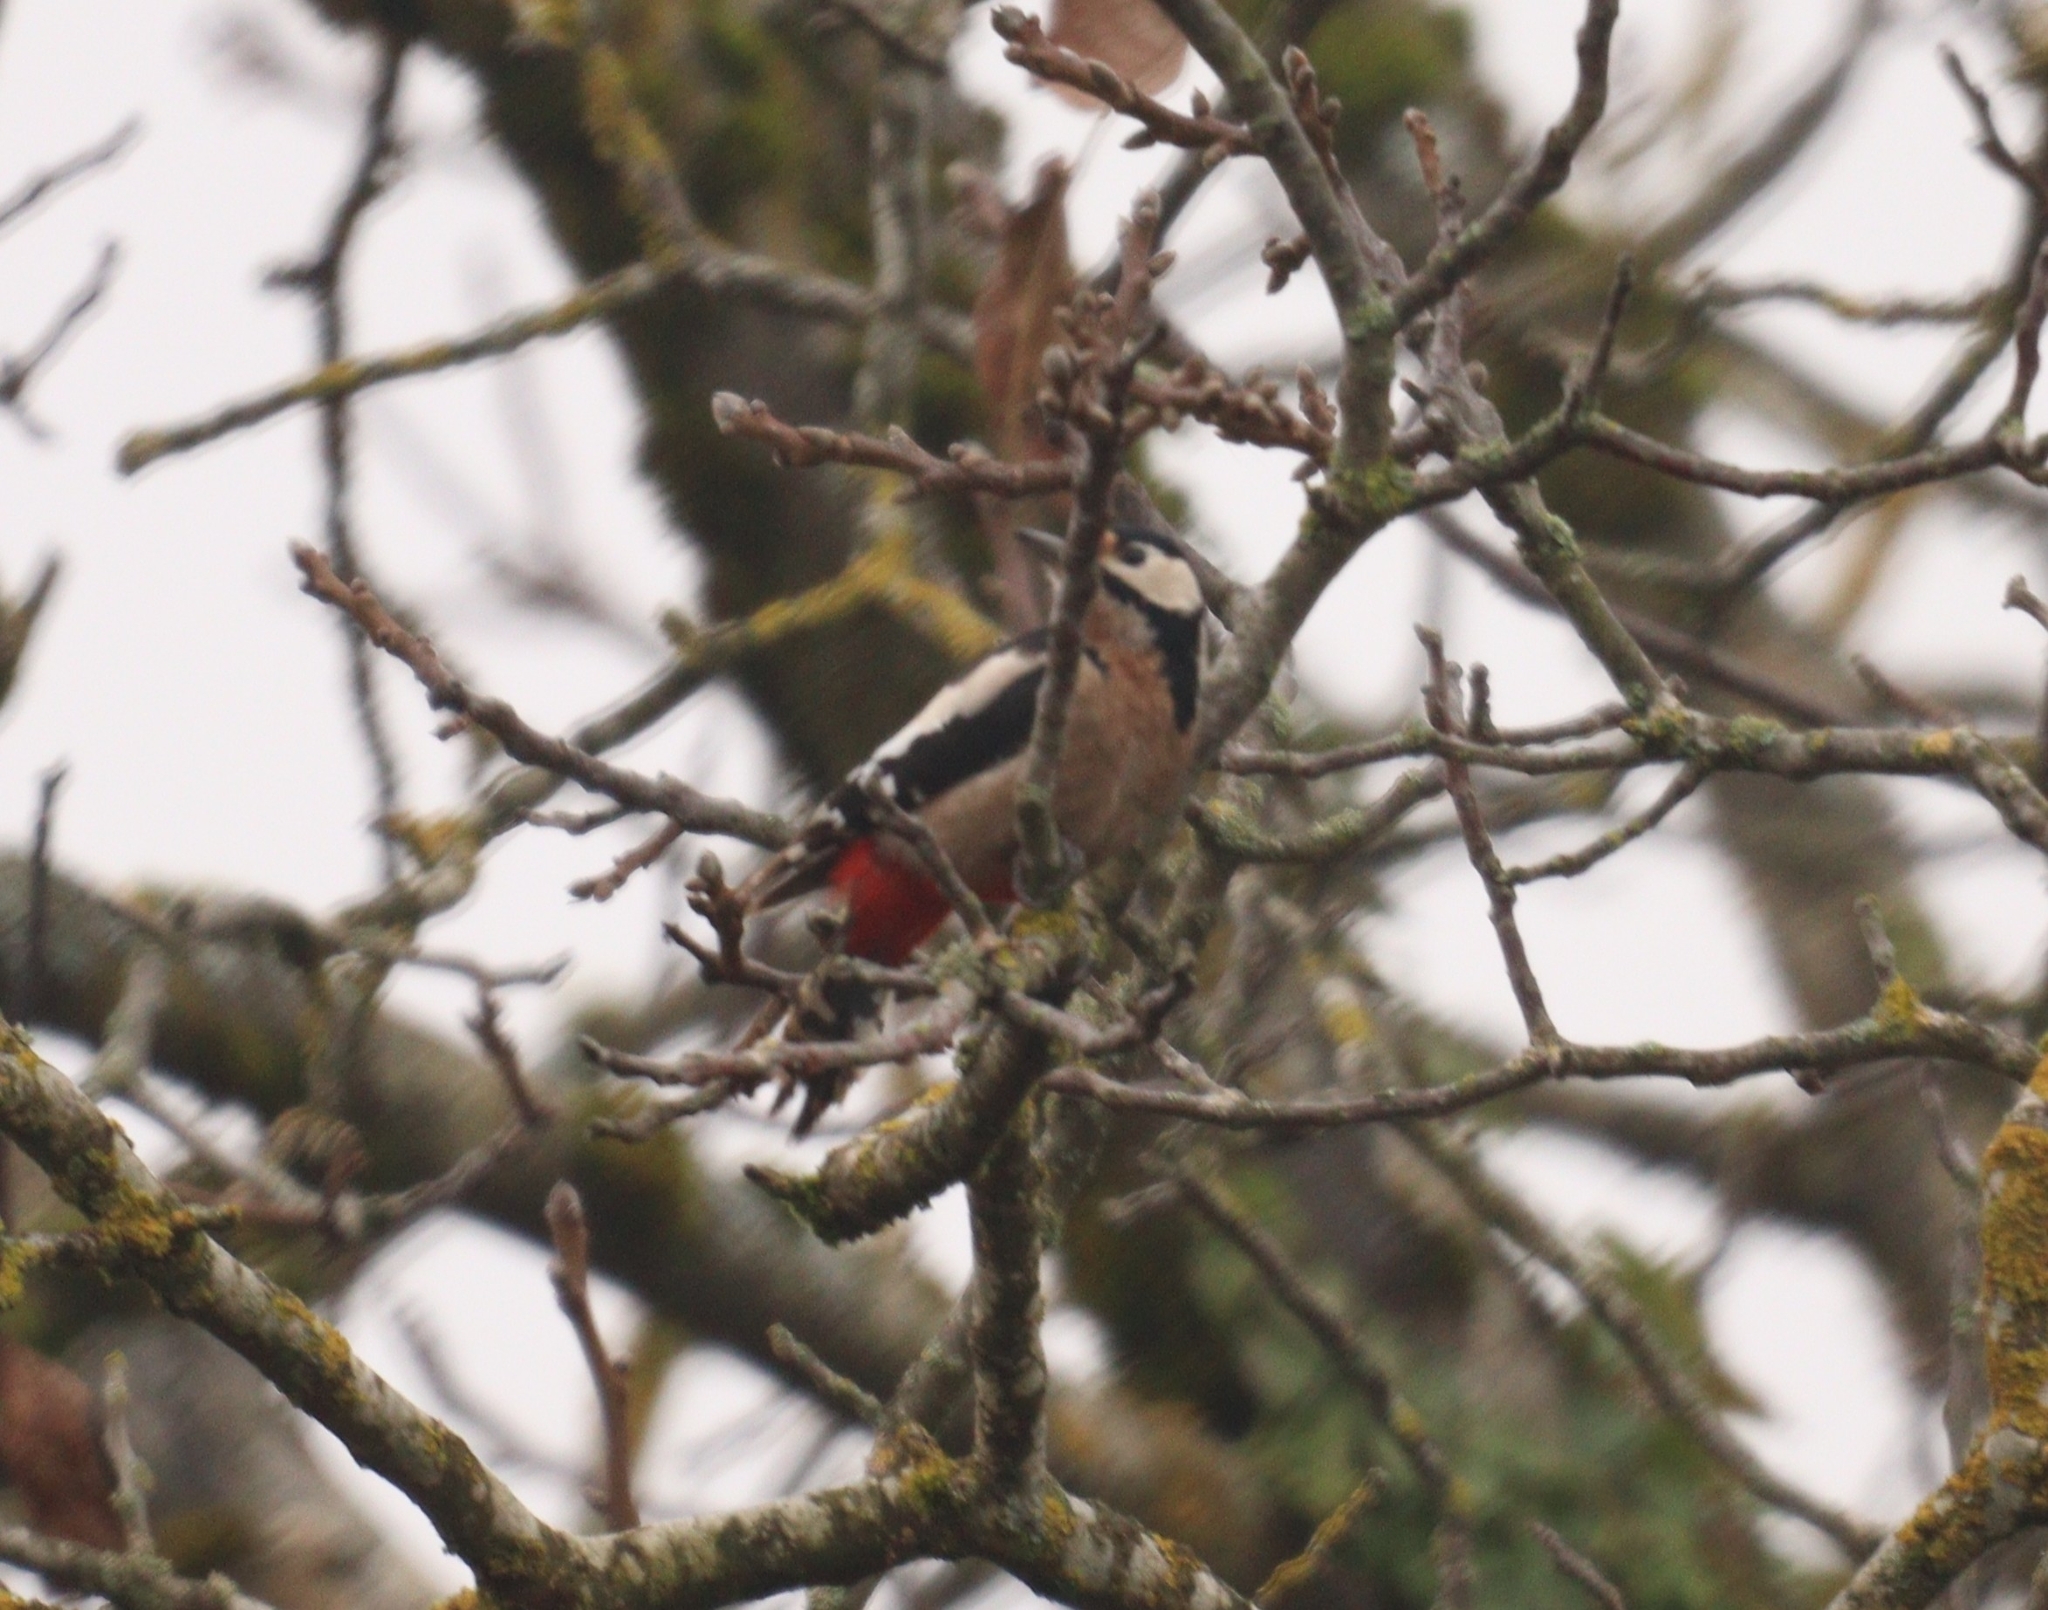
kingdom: Animalia
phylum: Chordata
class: Aves
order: Piciformes
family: Picidae
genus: Dendrocopos
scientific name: Dendrocopos major
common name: Great spotted woodpecker
